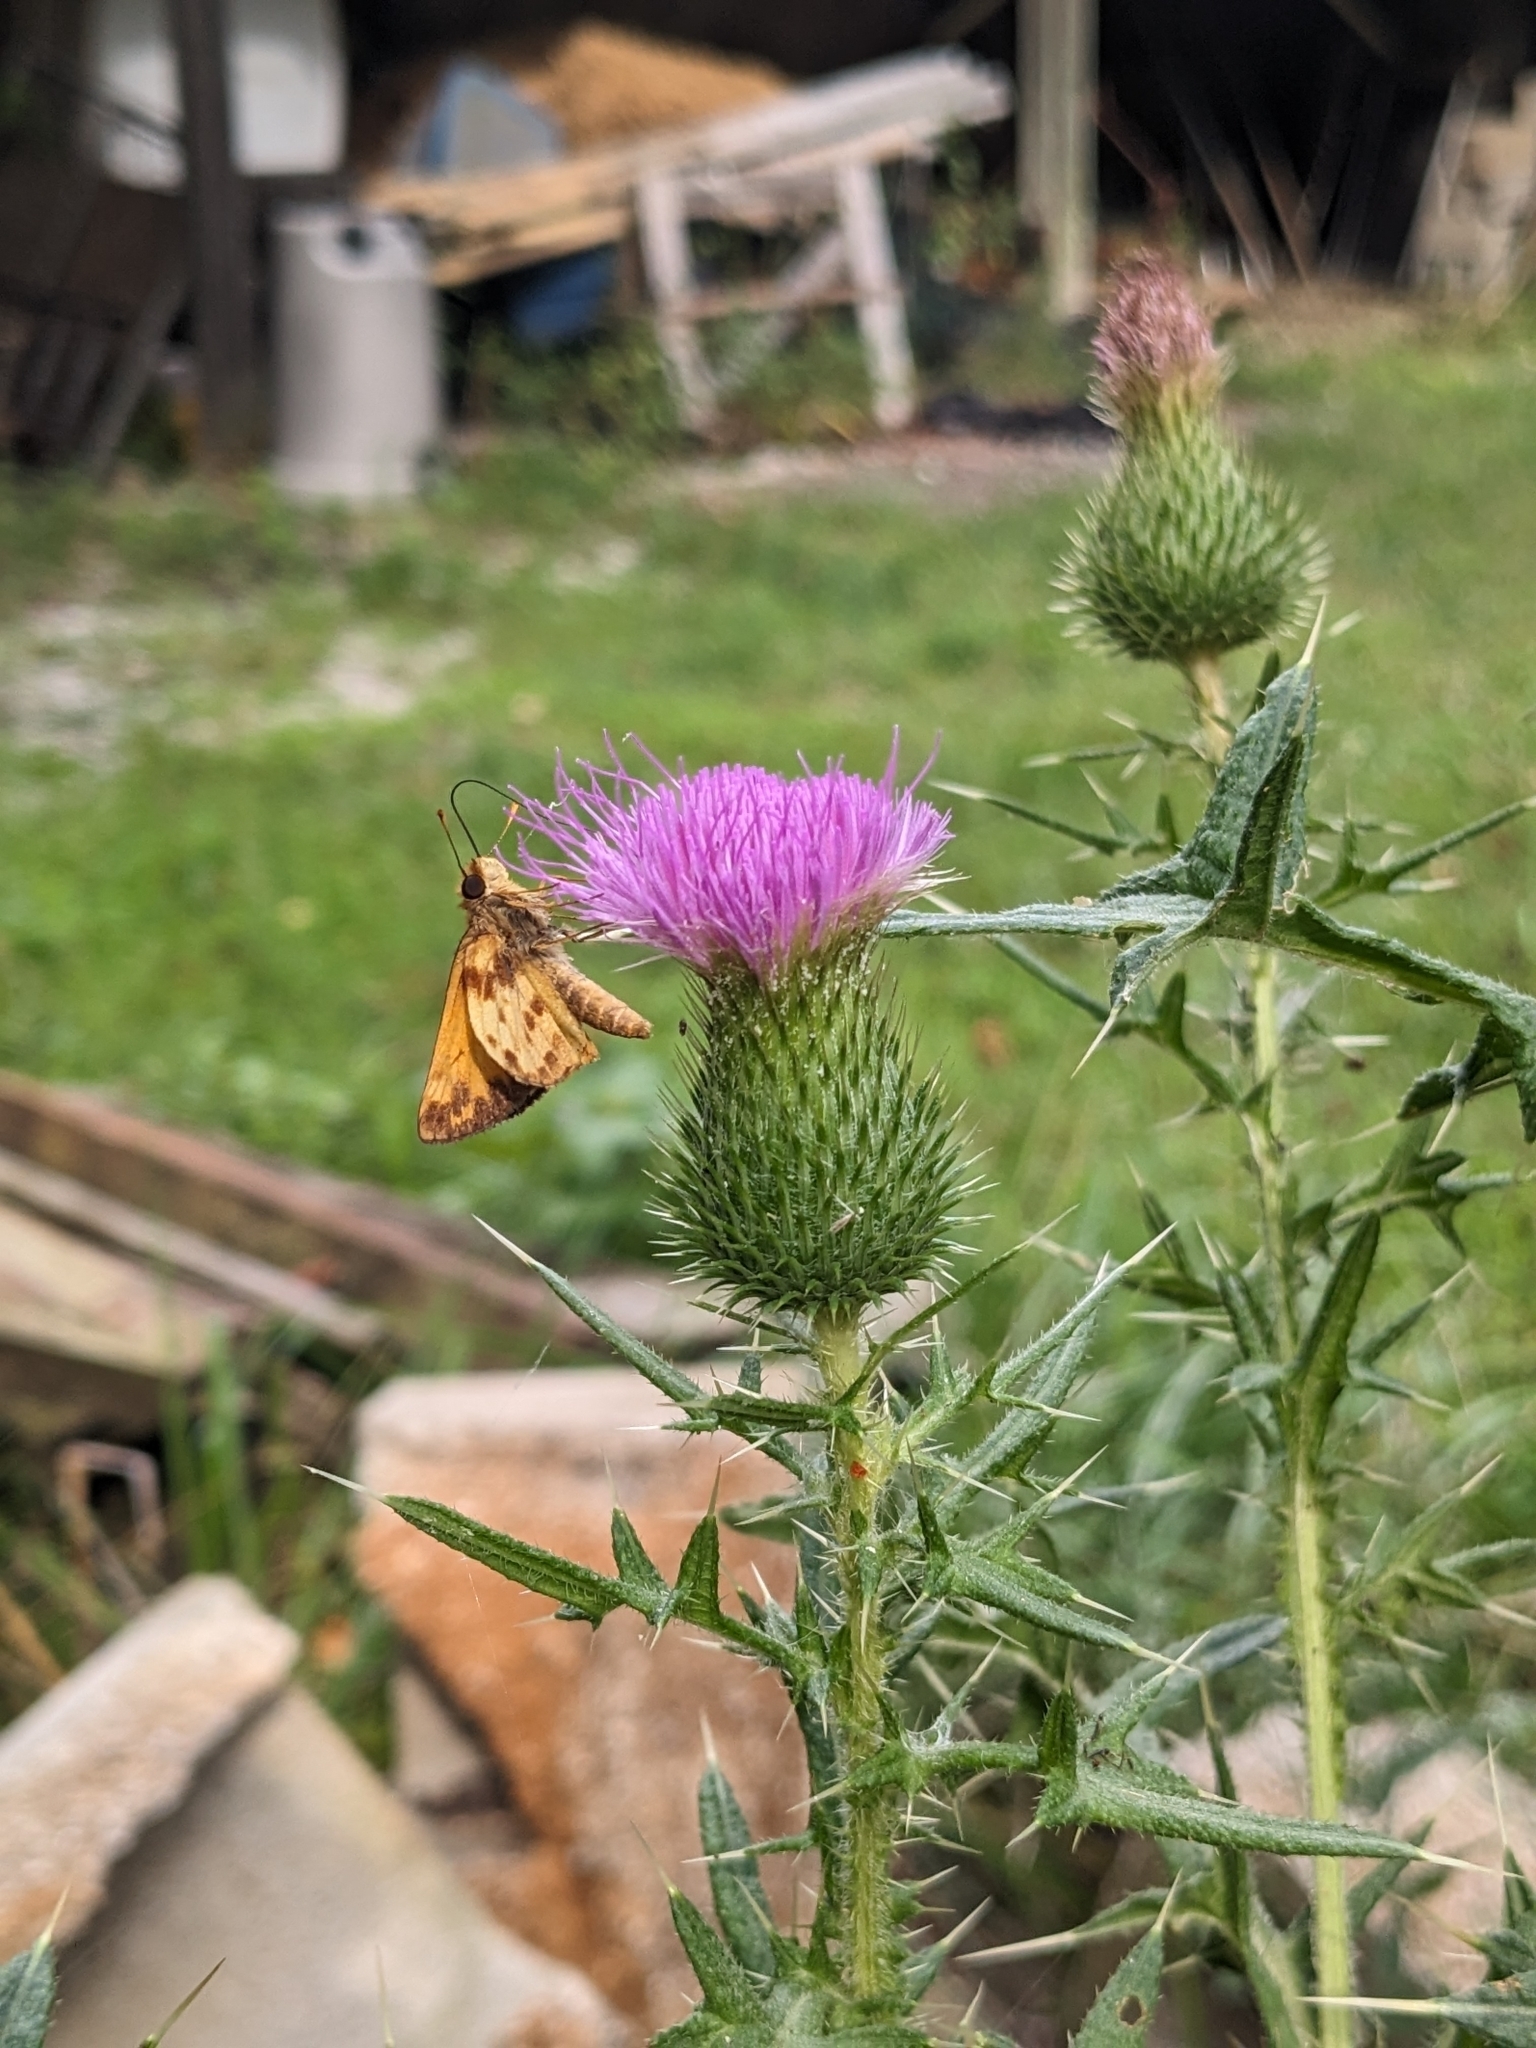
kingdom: Animalia
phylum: Arthropoda
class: Insecta
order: Lepidoptera
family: Hesperiidae
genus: Lon
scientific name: Lon zabulon
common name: Zabulon skipper
